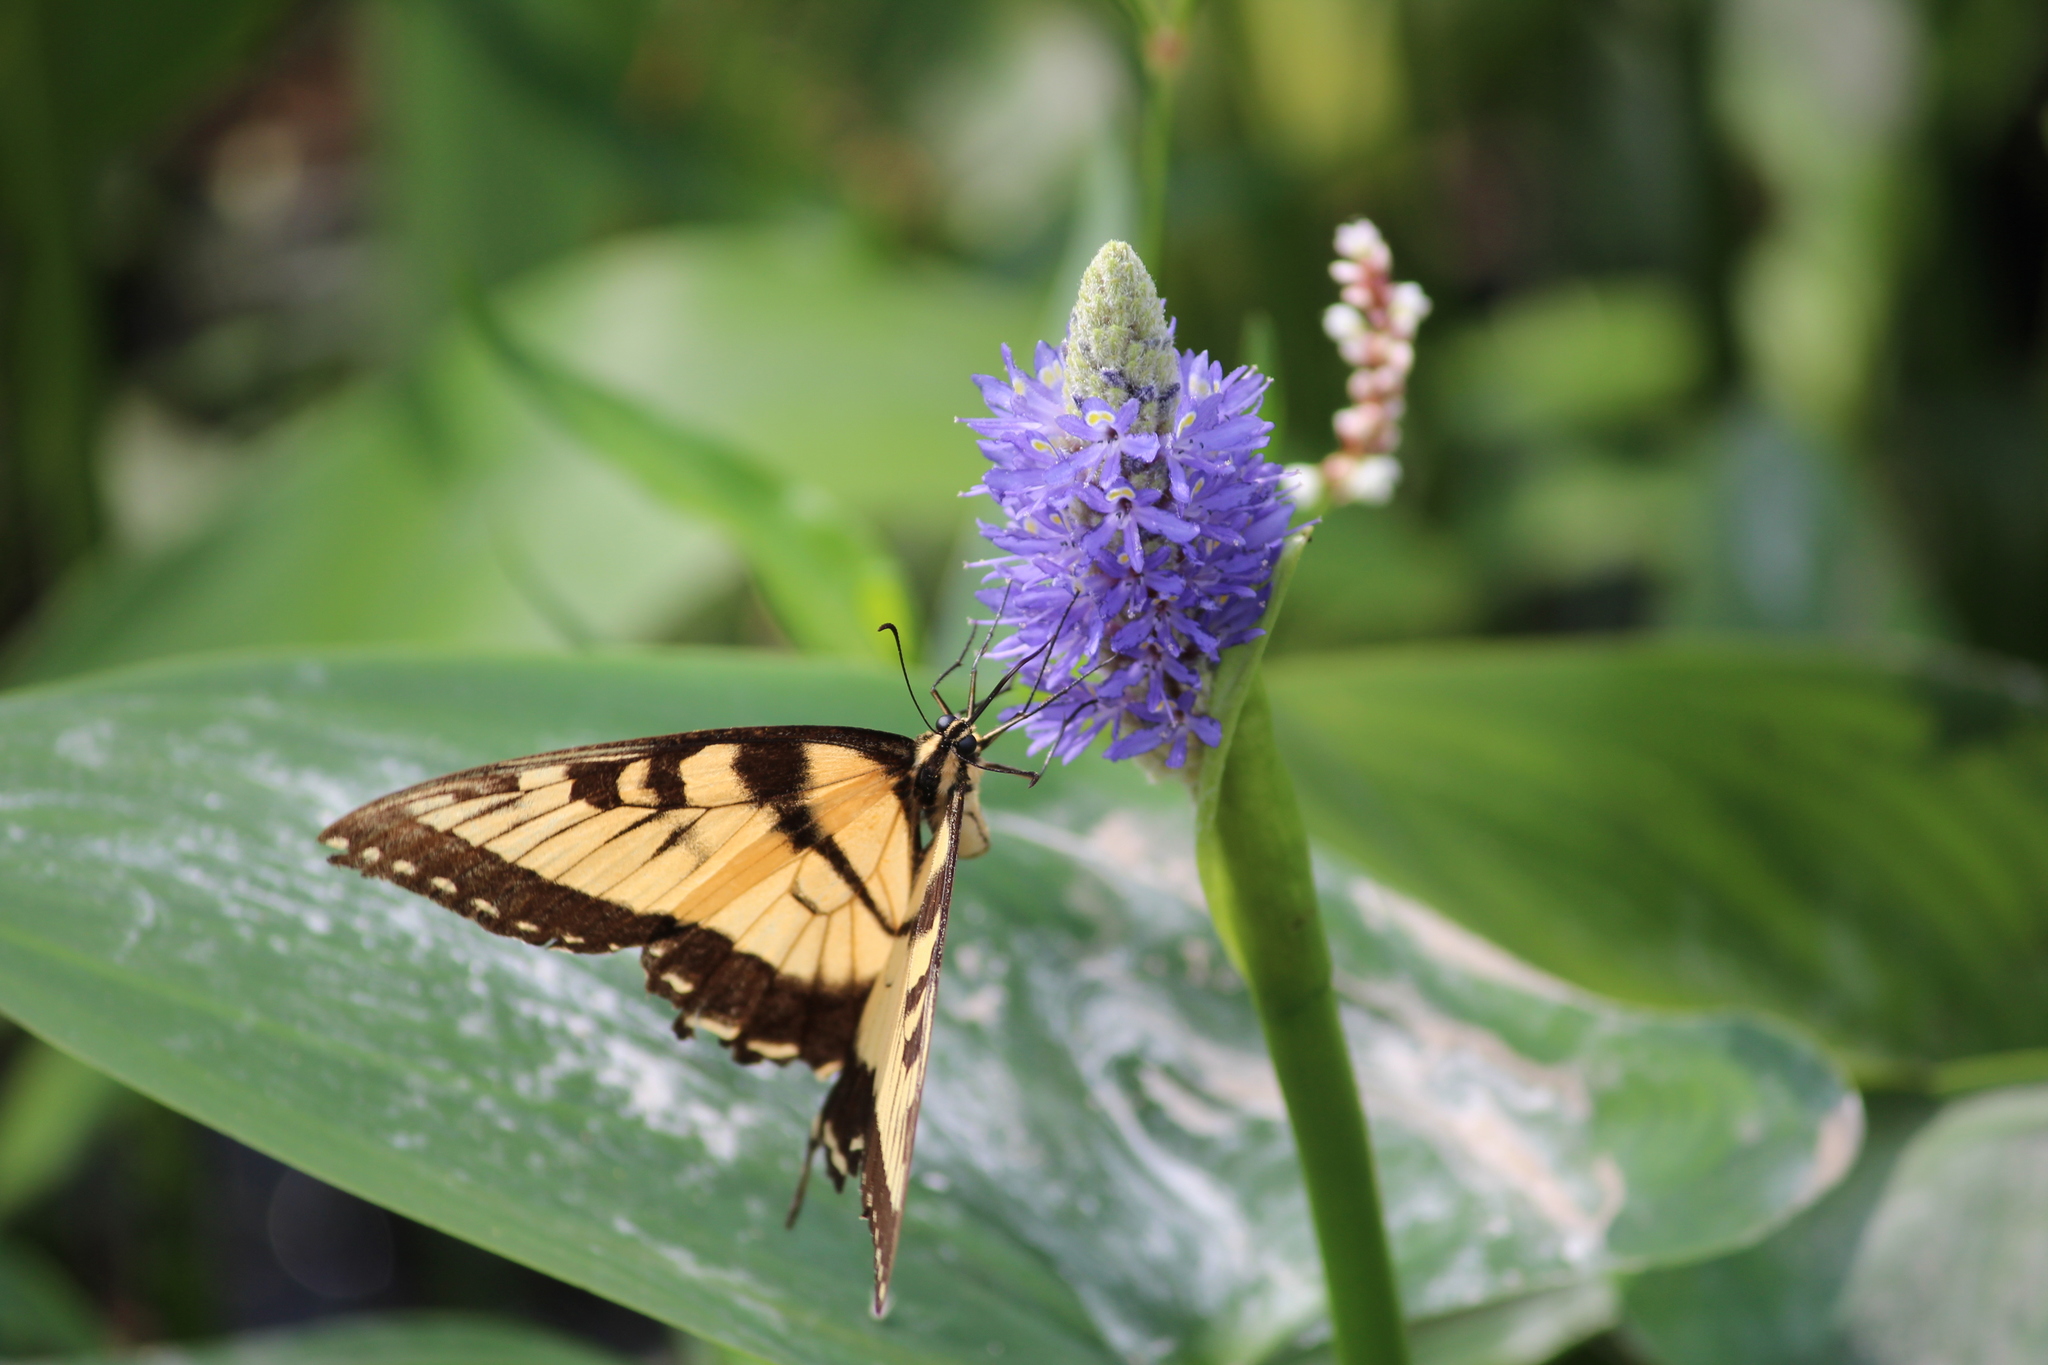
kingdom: Animalia
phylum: Arthropoda
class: Insecta
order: Lepidoptera
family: Papilionidae
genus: Papilio
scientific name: Papilio glaucus
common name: Tiger swallowtail
